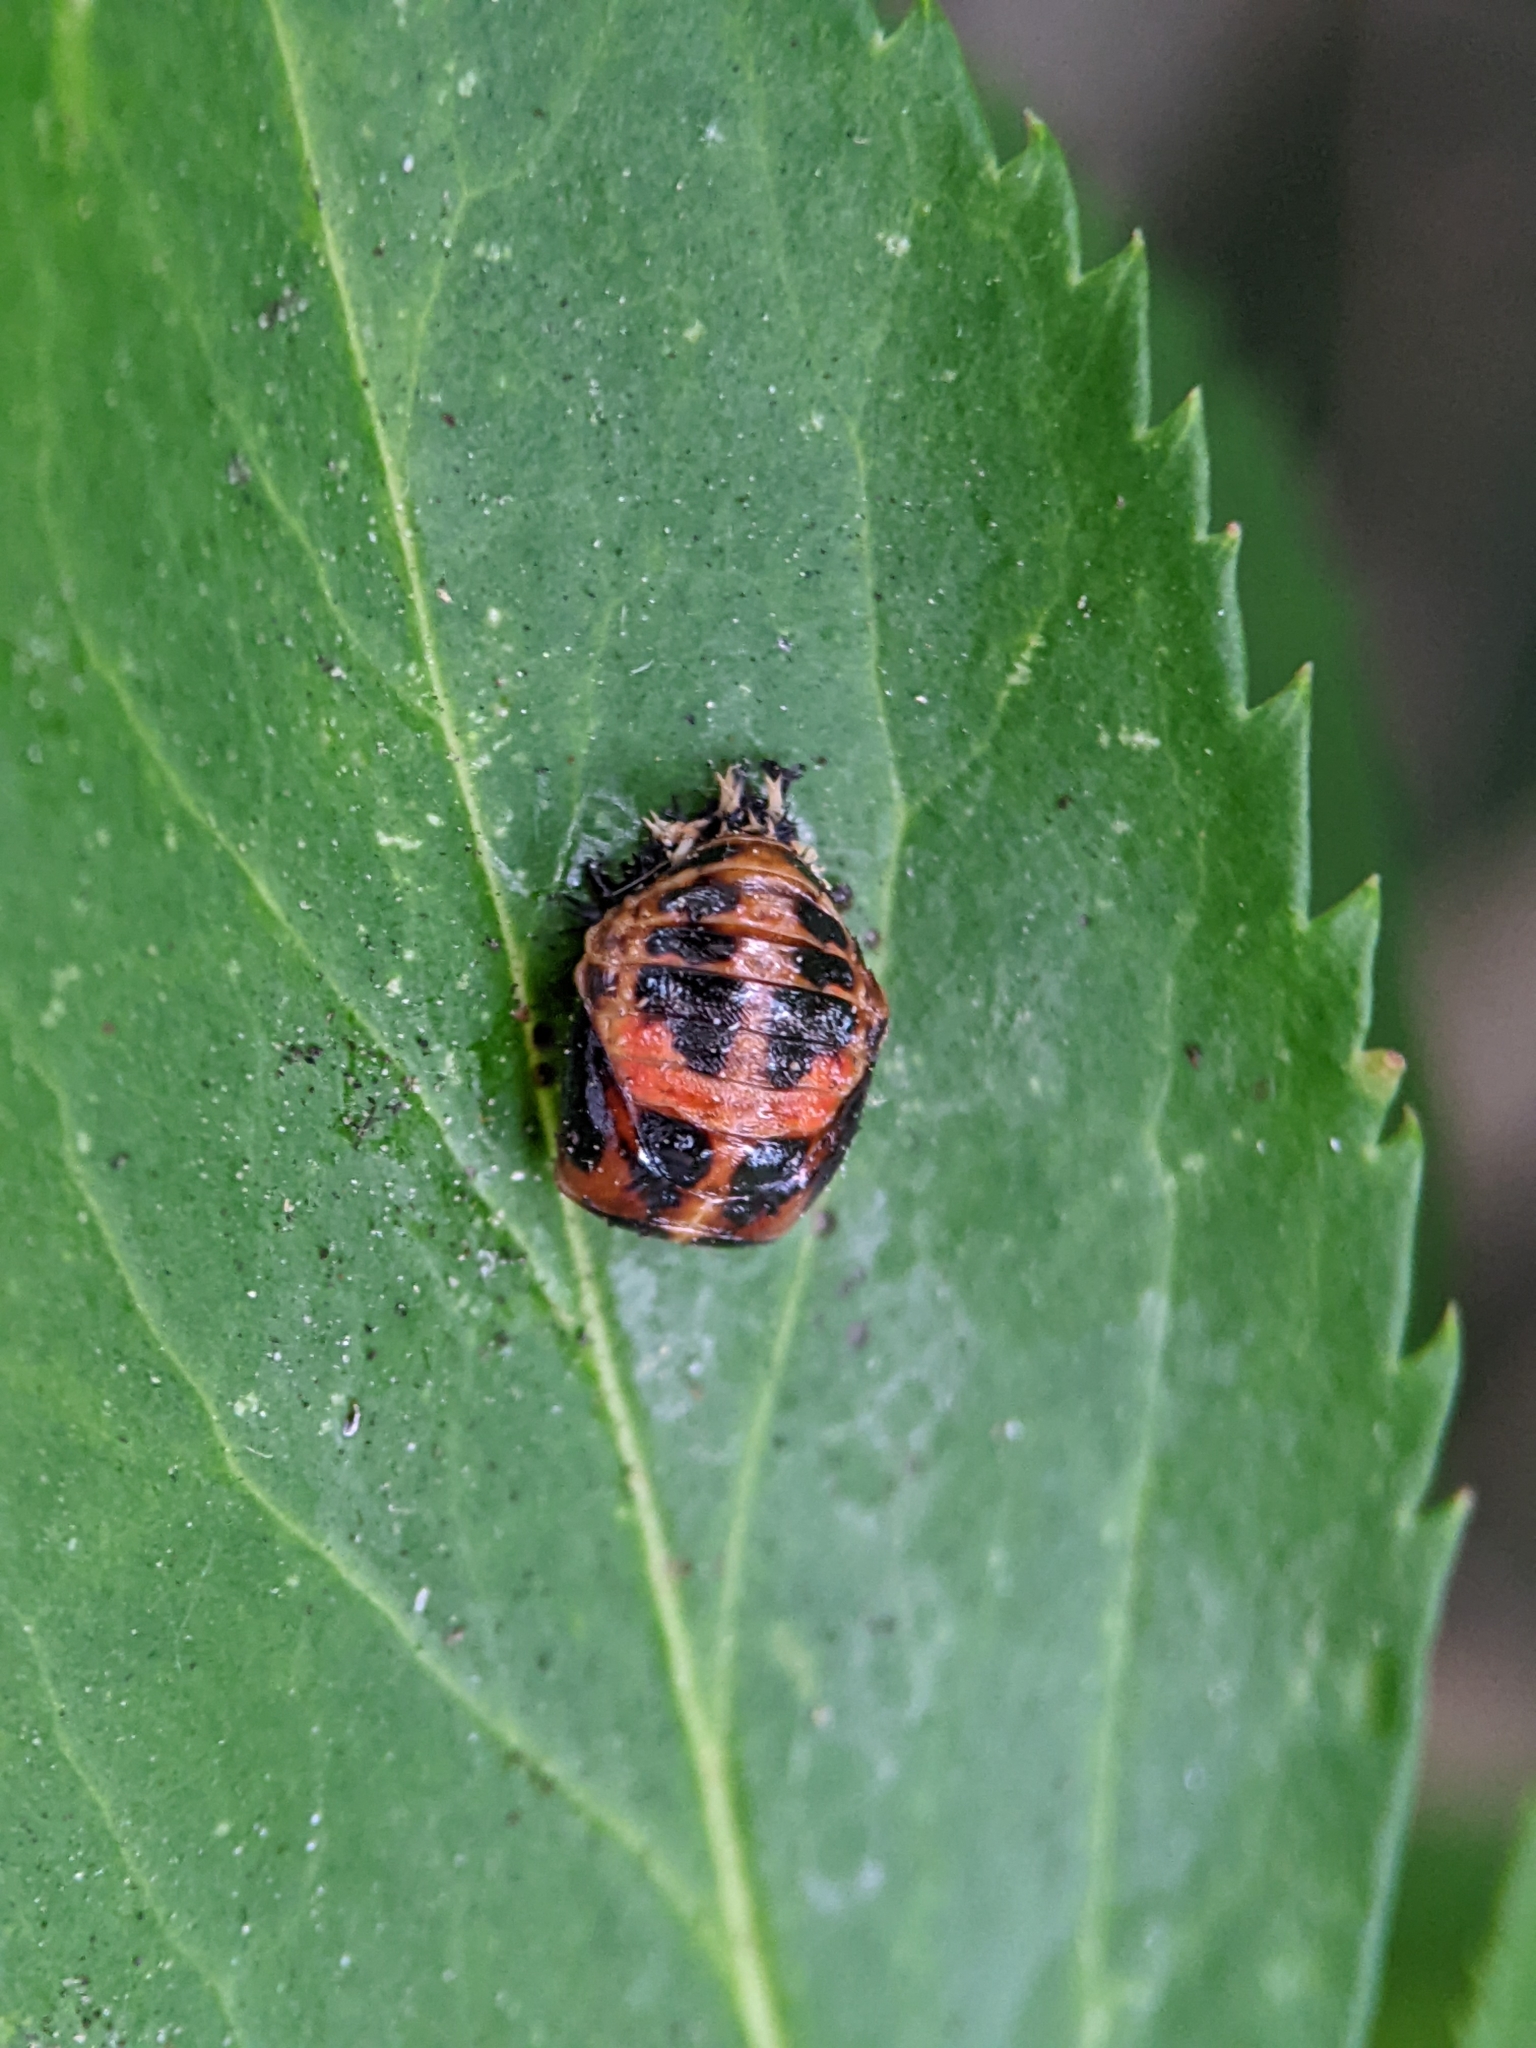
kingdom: Animalia
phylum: Arthropoda
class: Insecta
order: Coleoptera
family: Coccinellidae
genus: Harmonia
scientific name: Harmonia axyridis
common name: Harlequin ladybird
